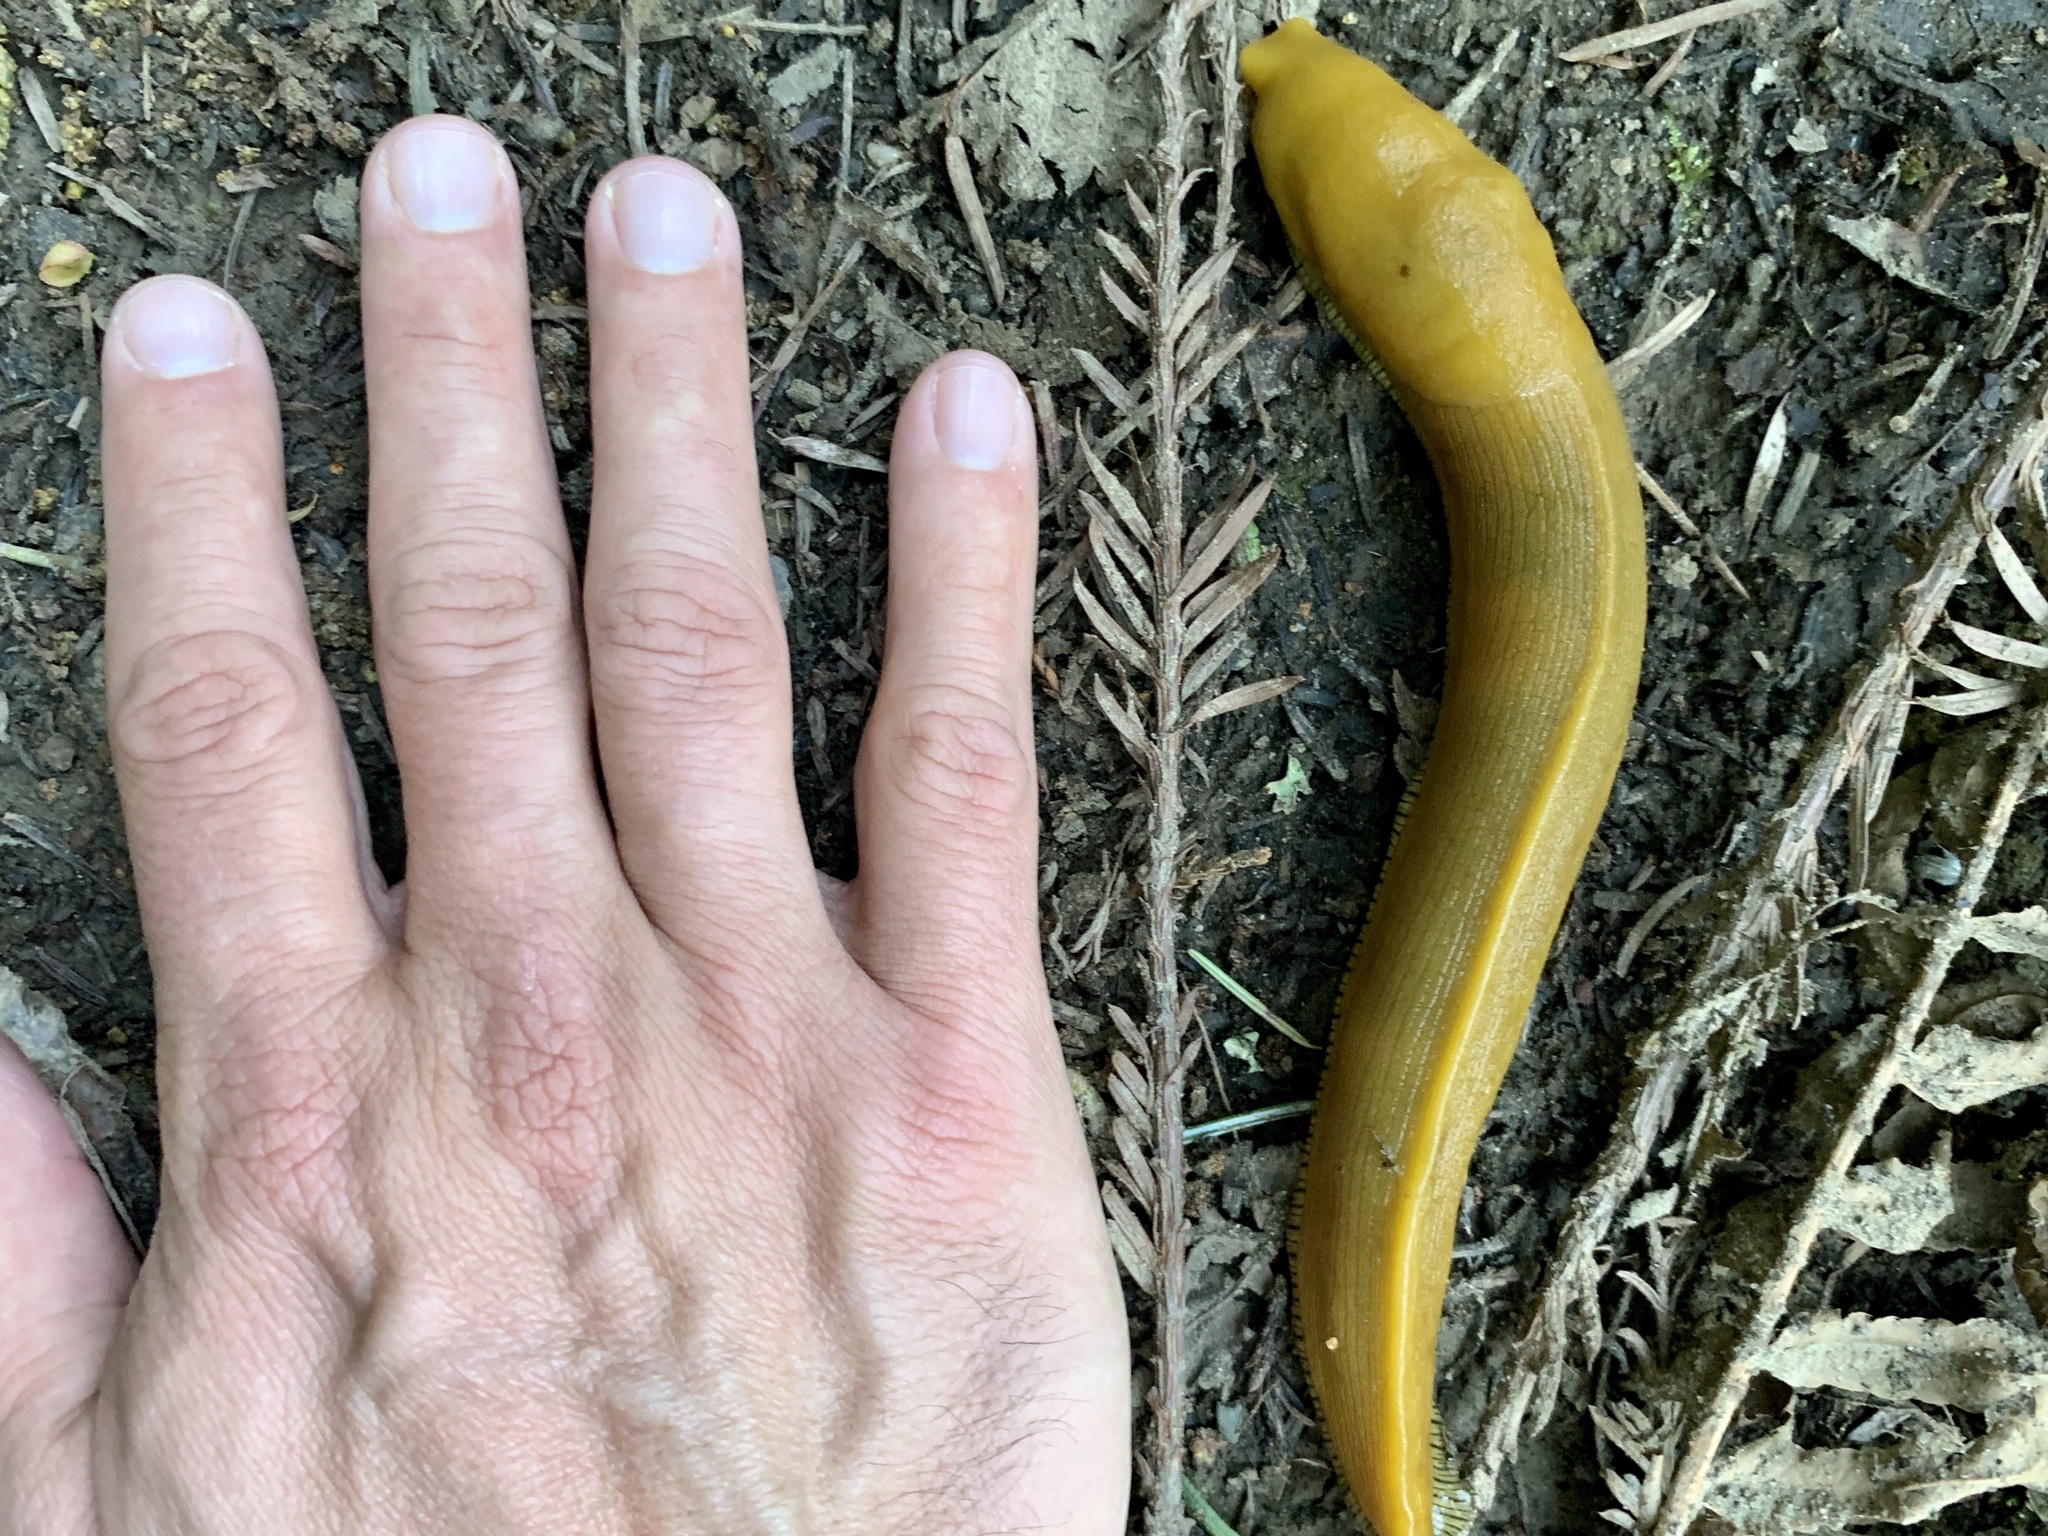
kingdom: Animalia
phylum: Mollusca
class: Gastropoda
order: Stylommatophora
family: Ariolimacidae
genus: Ariolimax
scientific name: Ariolimax buttoni
